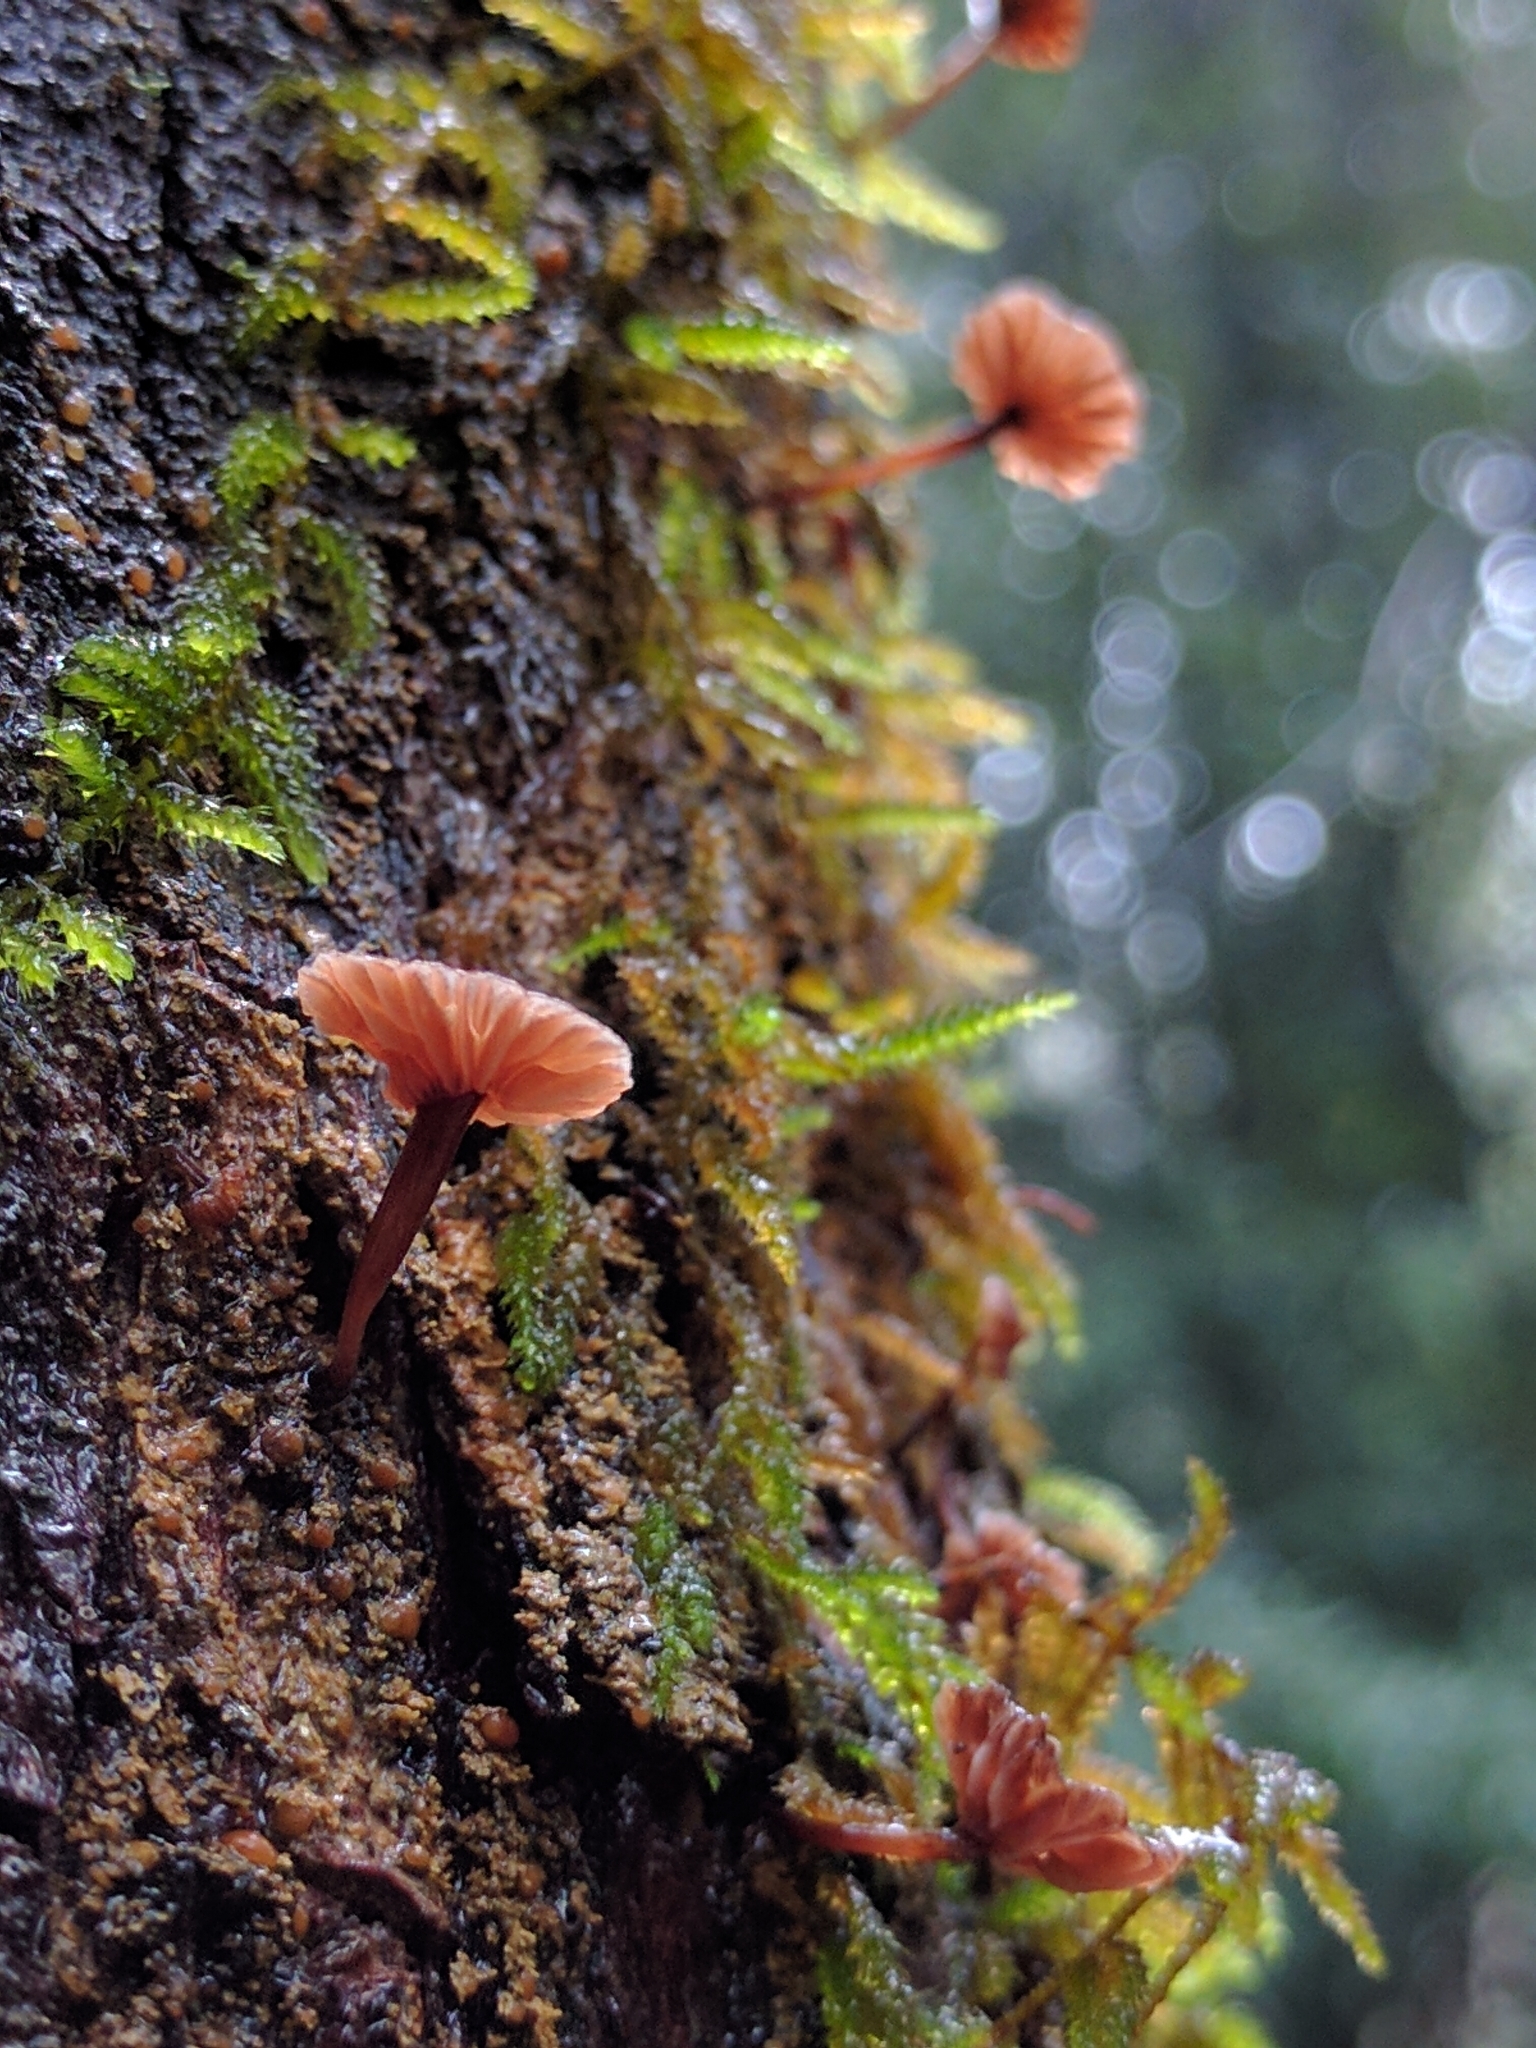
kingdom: Fungi
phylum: Basidiomycota
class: Agaricomycetes
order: Agaricales
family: Omphalotaceae
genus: Micromphale
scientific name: Micromphale arbuticola
